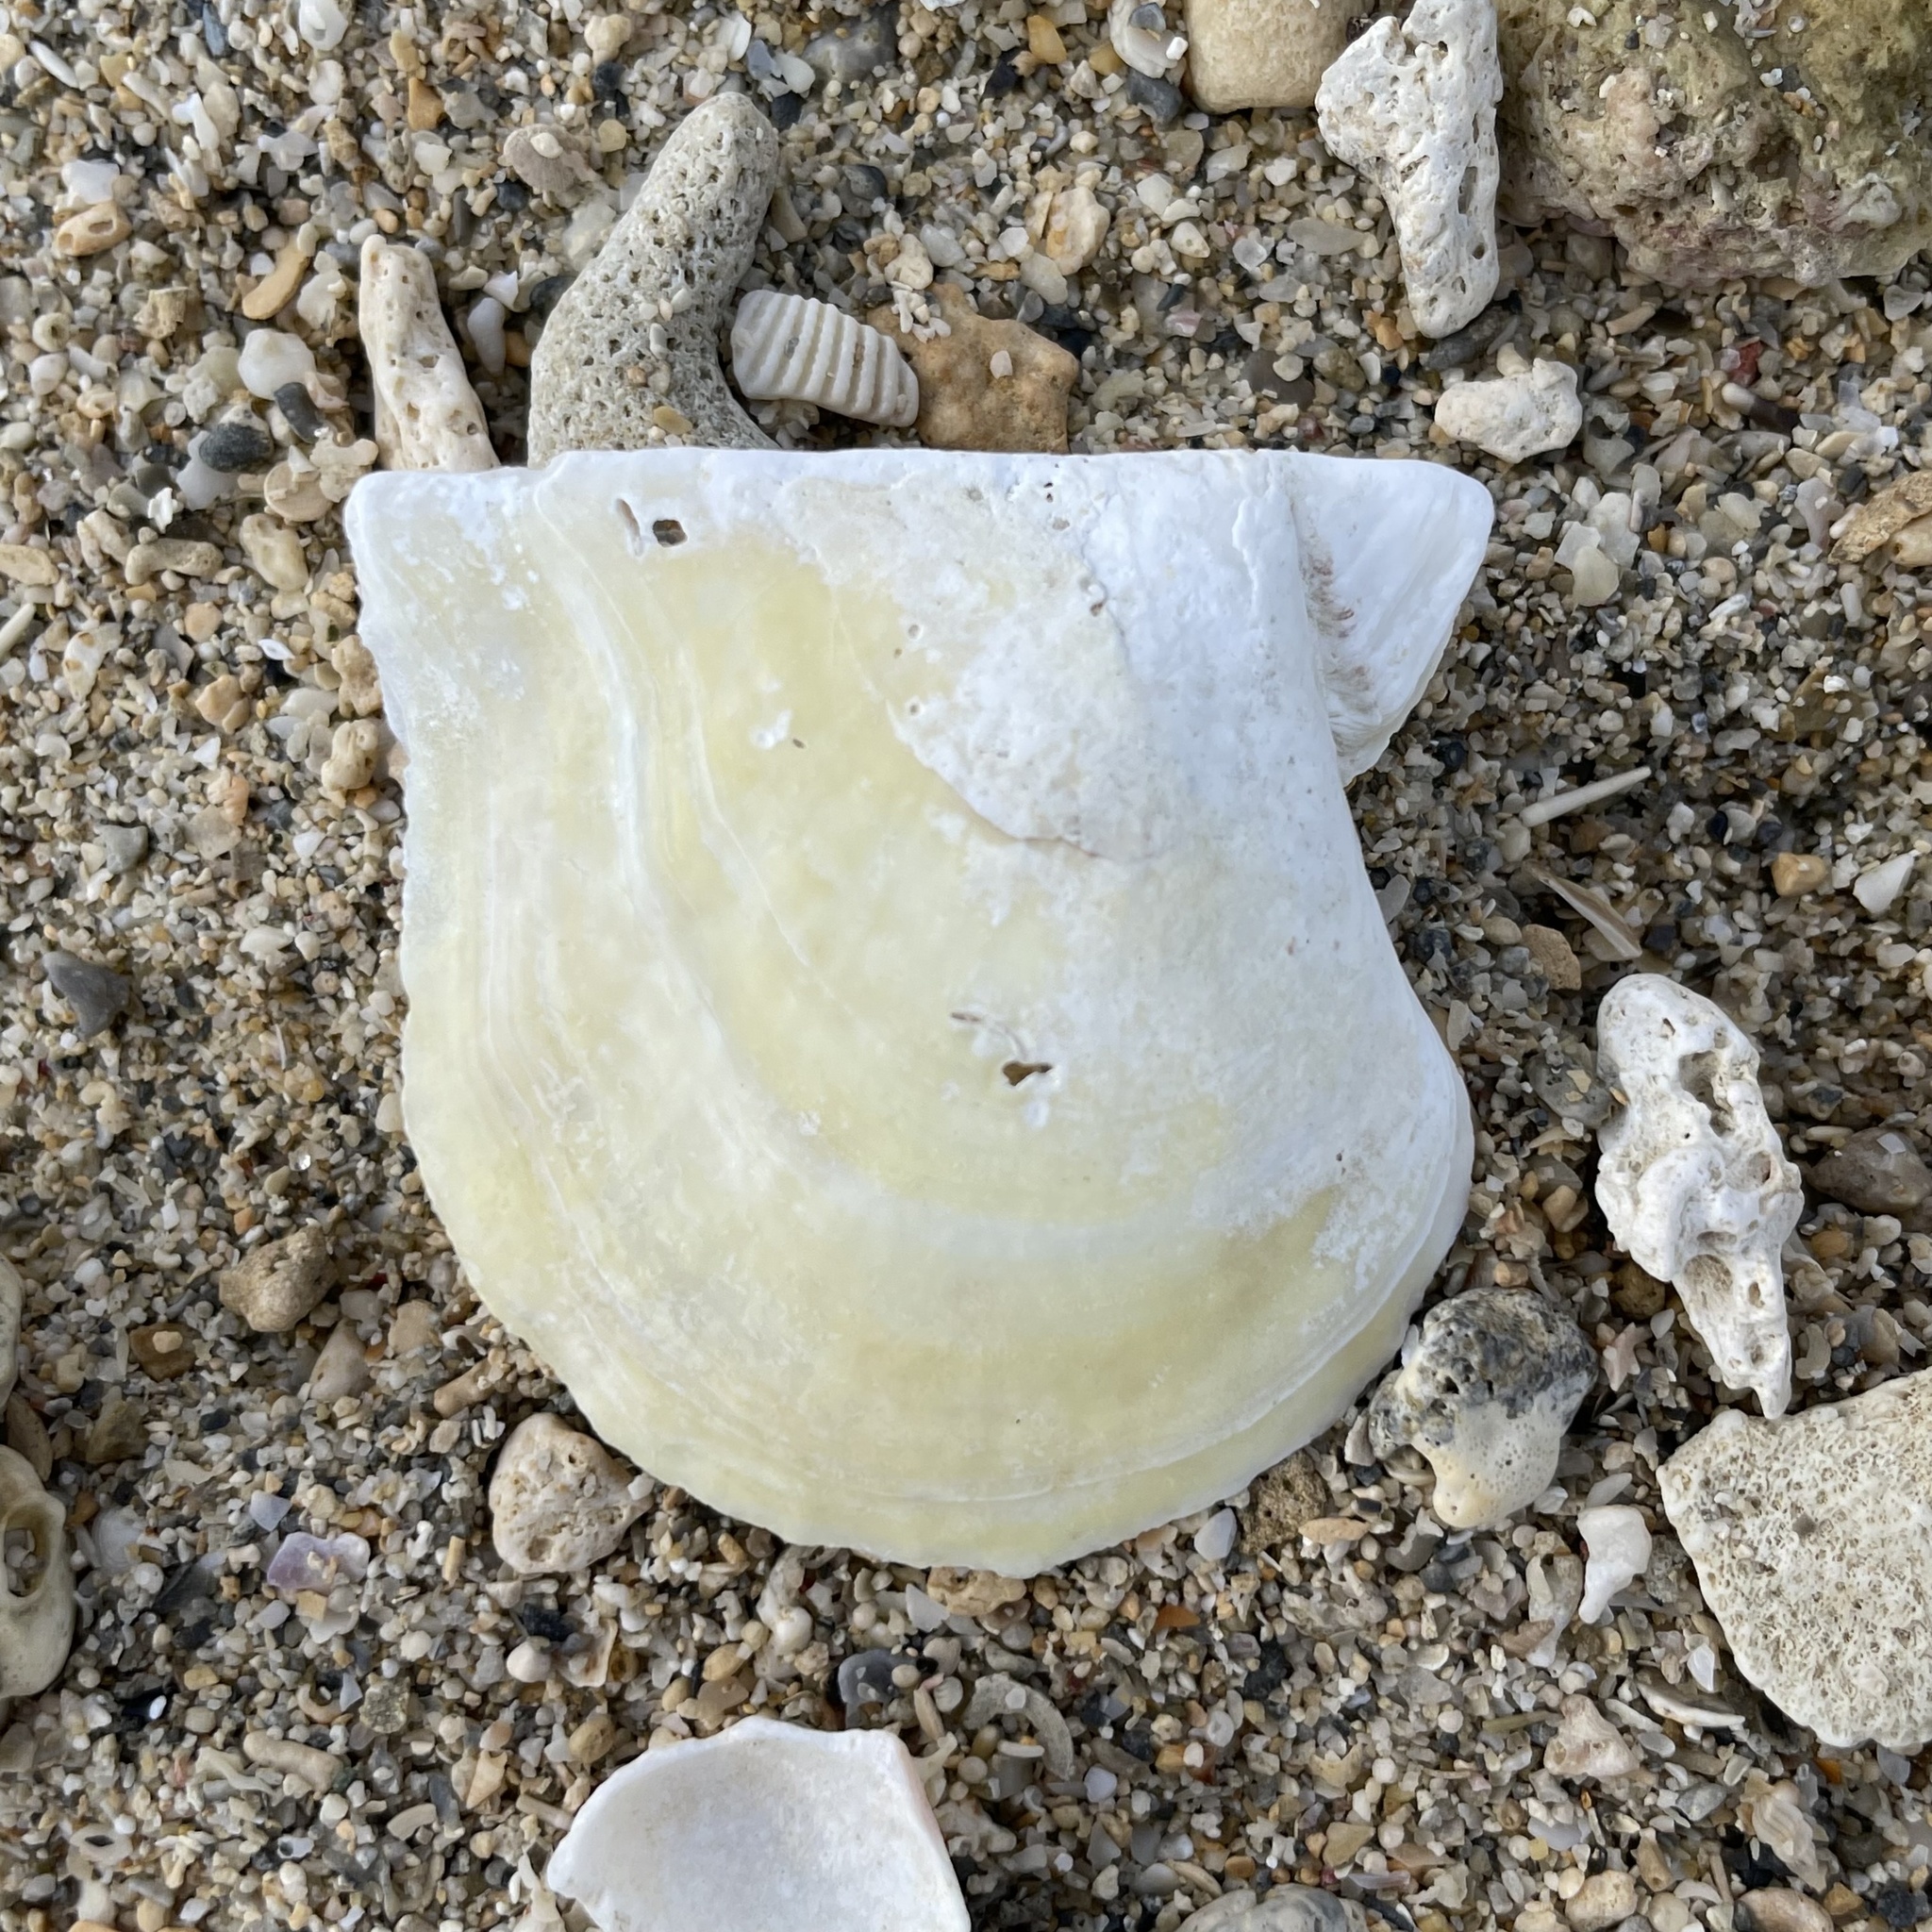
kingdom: Animalia
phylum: Mollusca
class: Bivalvia
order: Ostreida
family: Margaritidae
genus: Pinctada
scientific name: Pinctada imbricata
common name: Atlantic pearl-oyster
